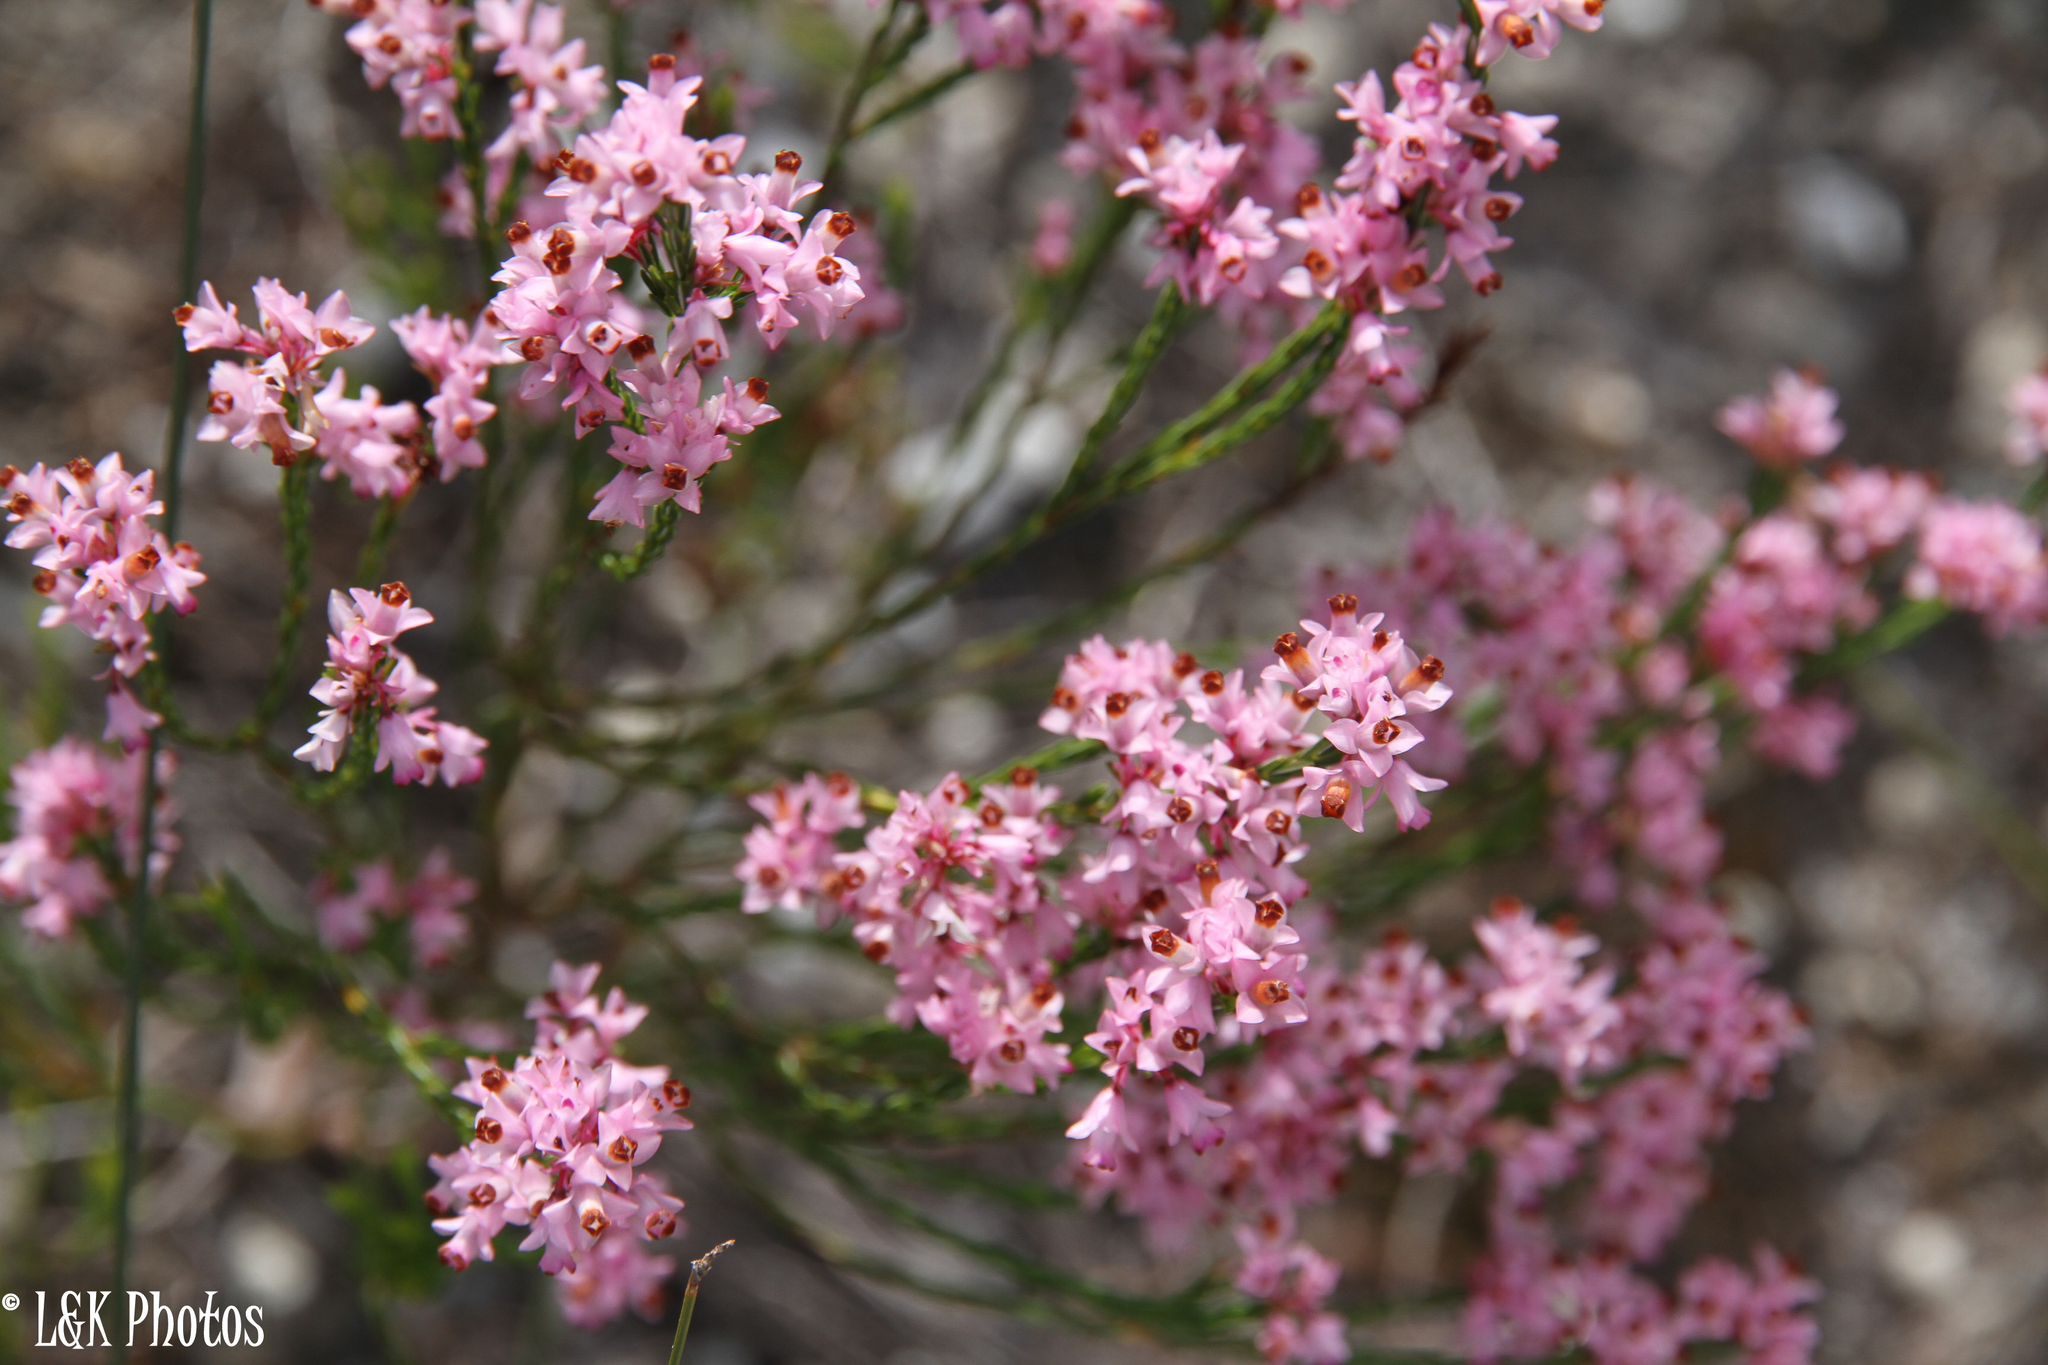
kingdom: Plantae
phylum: Tracheophyta
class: Magnoliopsida
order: Ericales
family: Ericaceae
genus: Erica
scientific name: Erica articularis
